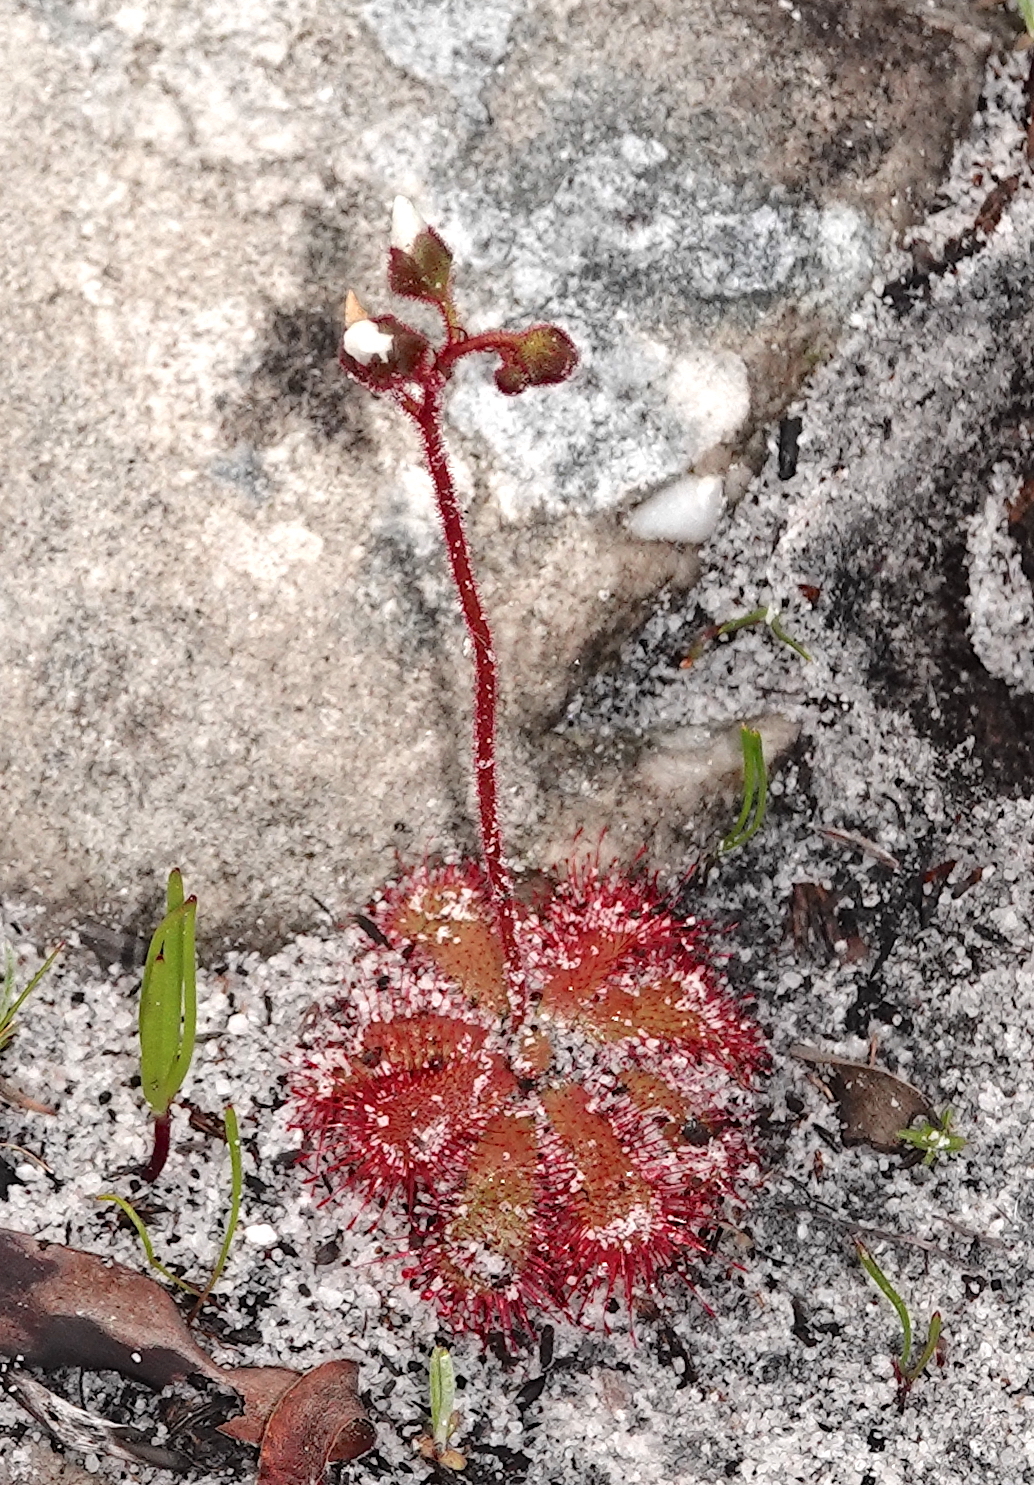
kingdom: Plantae
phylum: Tracheophyta
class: Magnoliopsida
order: Caryophyllales
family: Droseraceae
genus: Drosera
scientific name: Drosera trinervia
